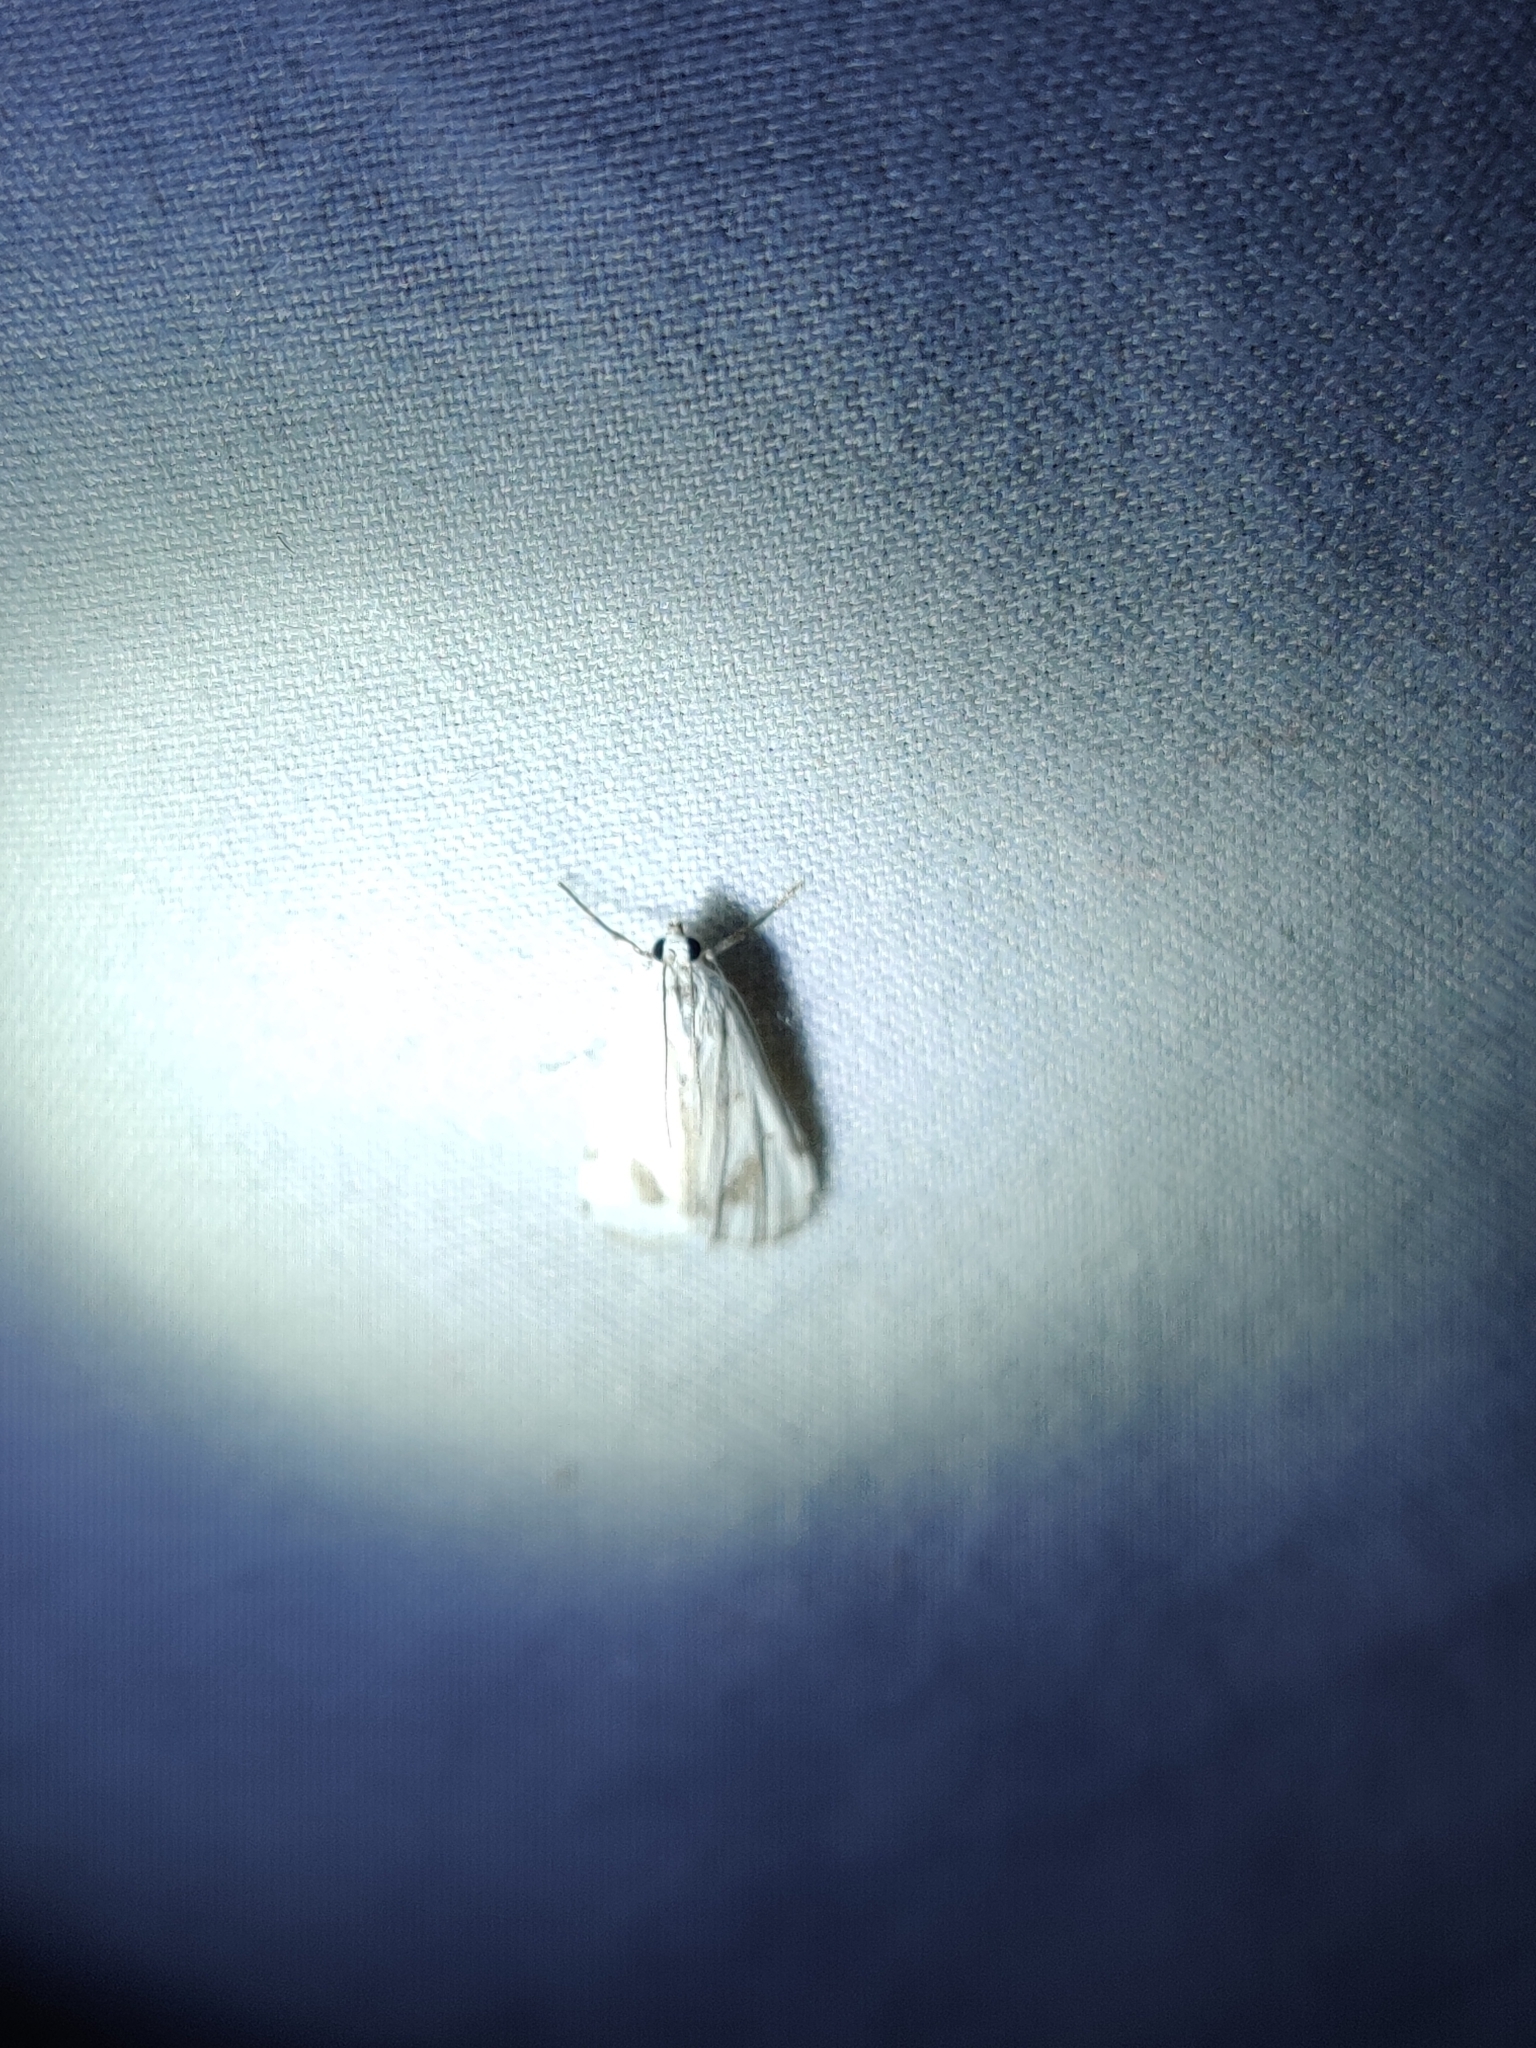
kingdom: Animalia
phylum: Arthropoda
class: Insecta
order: Lepidoptera
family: Crambidae
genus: Parapoynx
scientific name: Parapoynx maculalis
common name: Polymorphic pondweed moth
